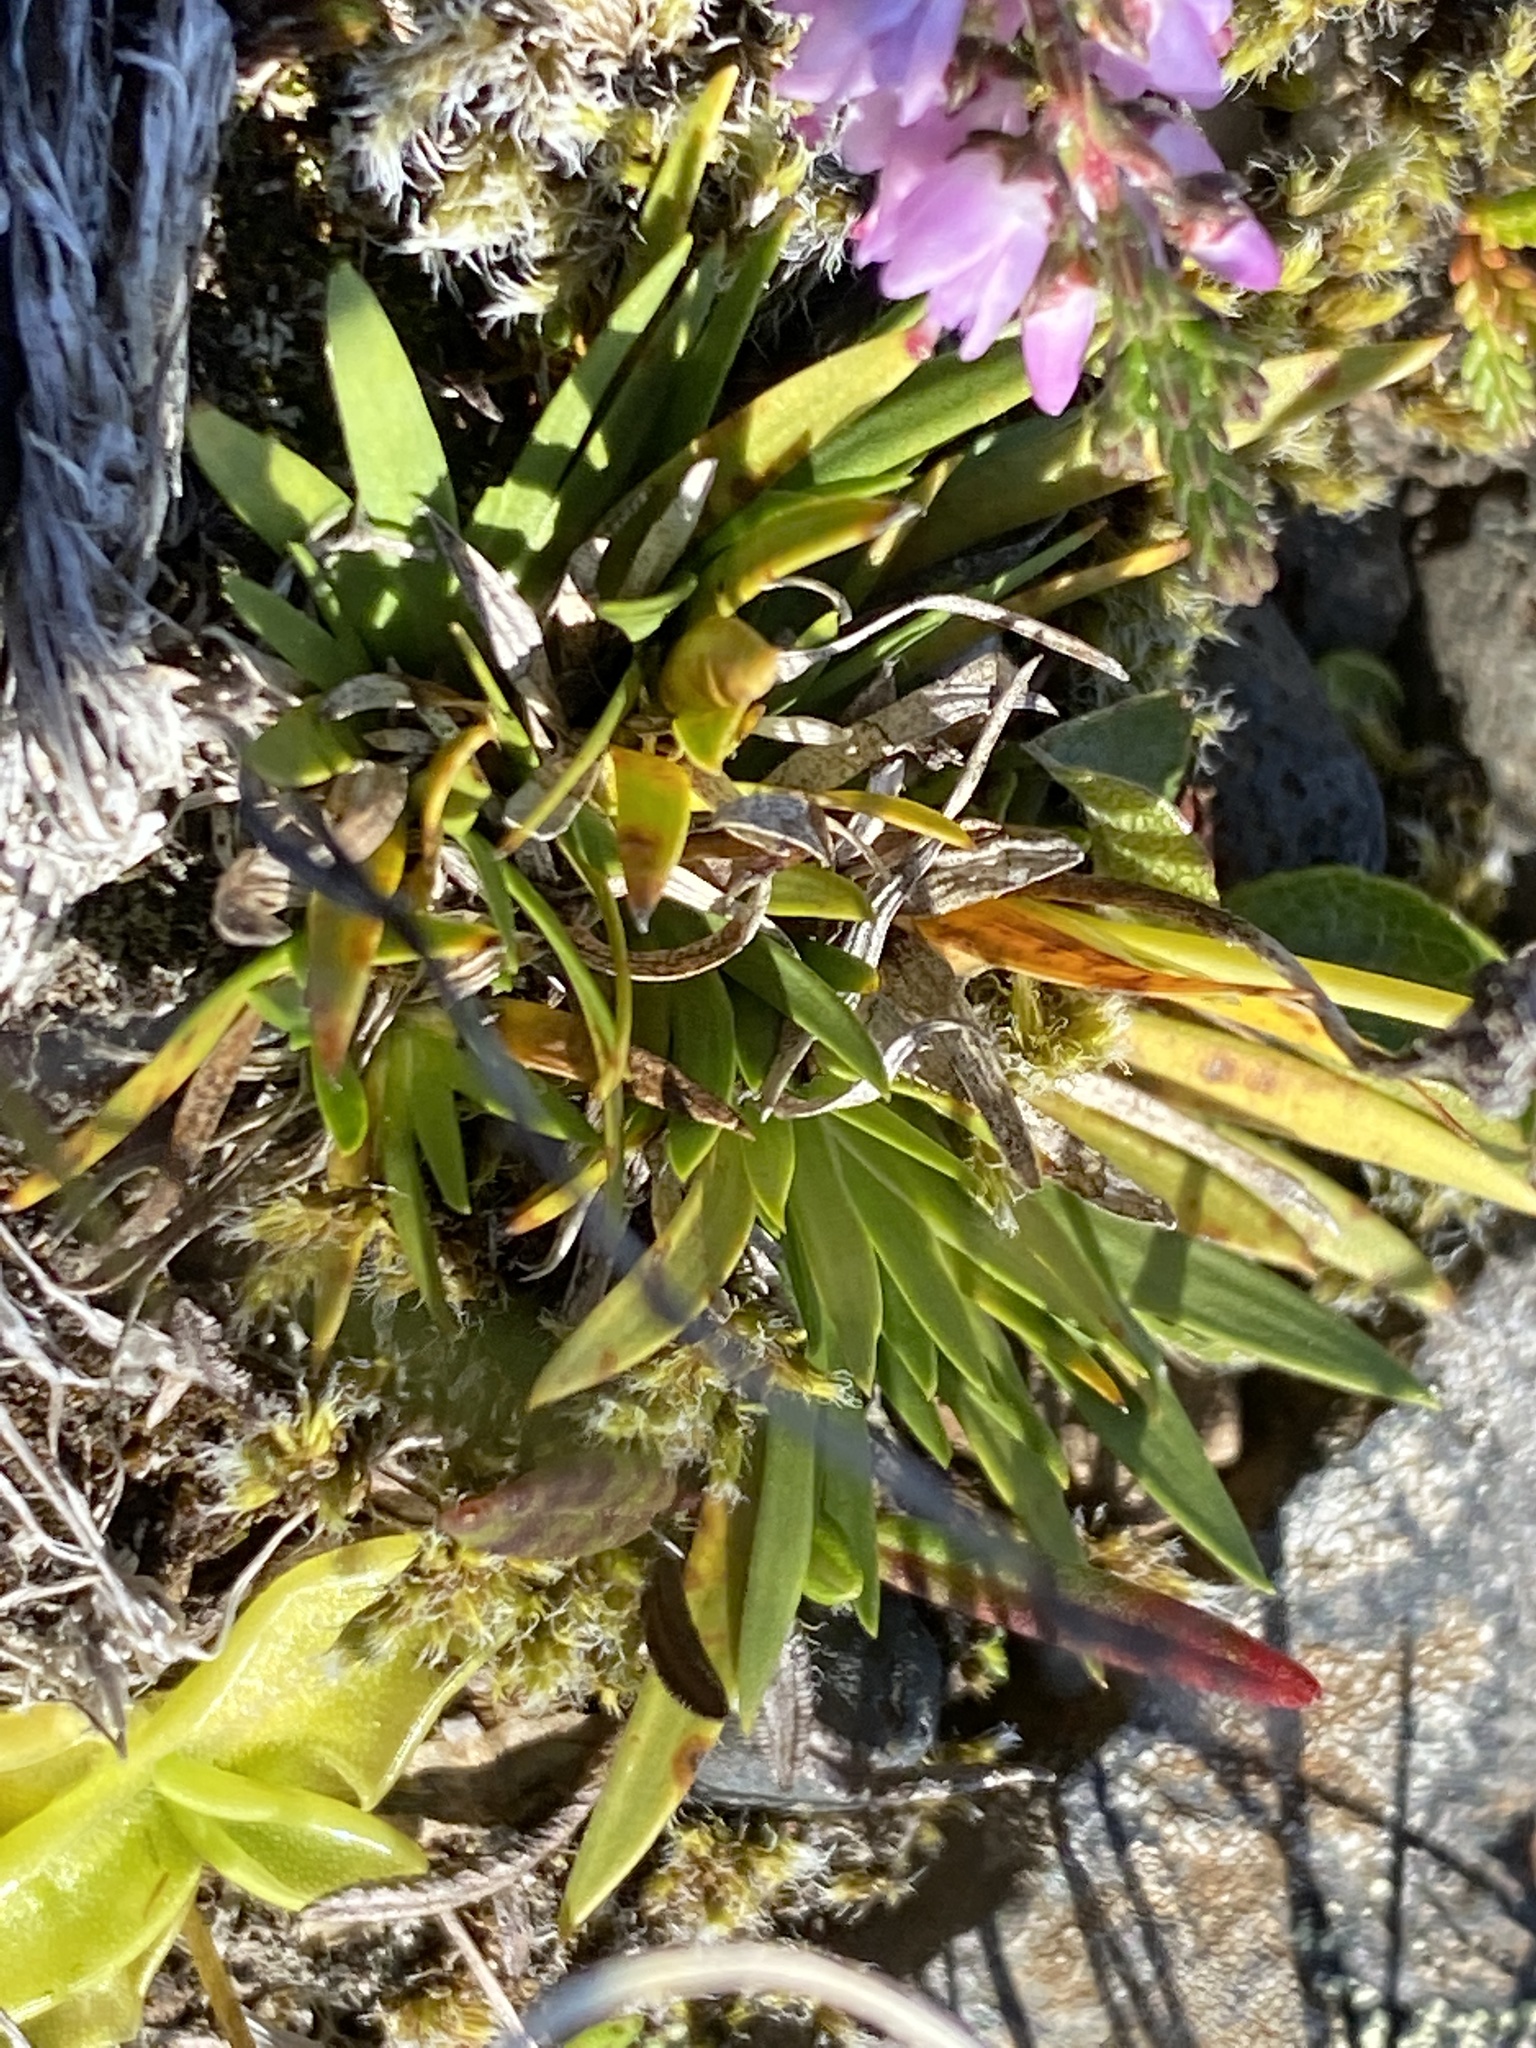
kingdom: Plantae
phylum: Tracheophyta
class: Liliopsida
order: Alismatales
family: Tofieldiaceae
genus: Tofieldia
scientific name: Tofieldia pusilla
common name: Scottish false asphodel
